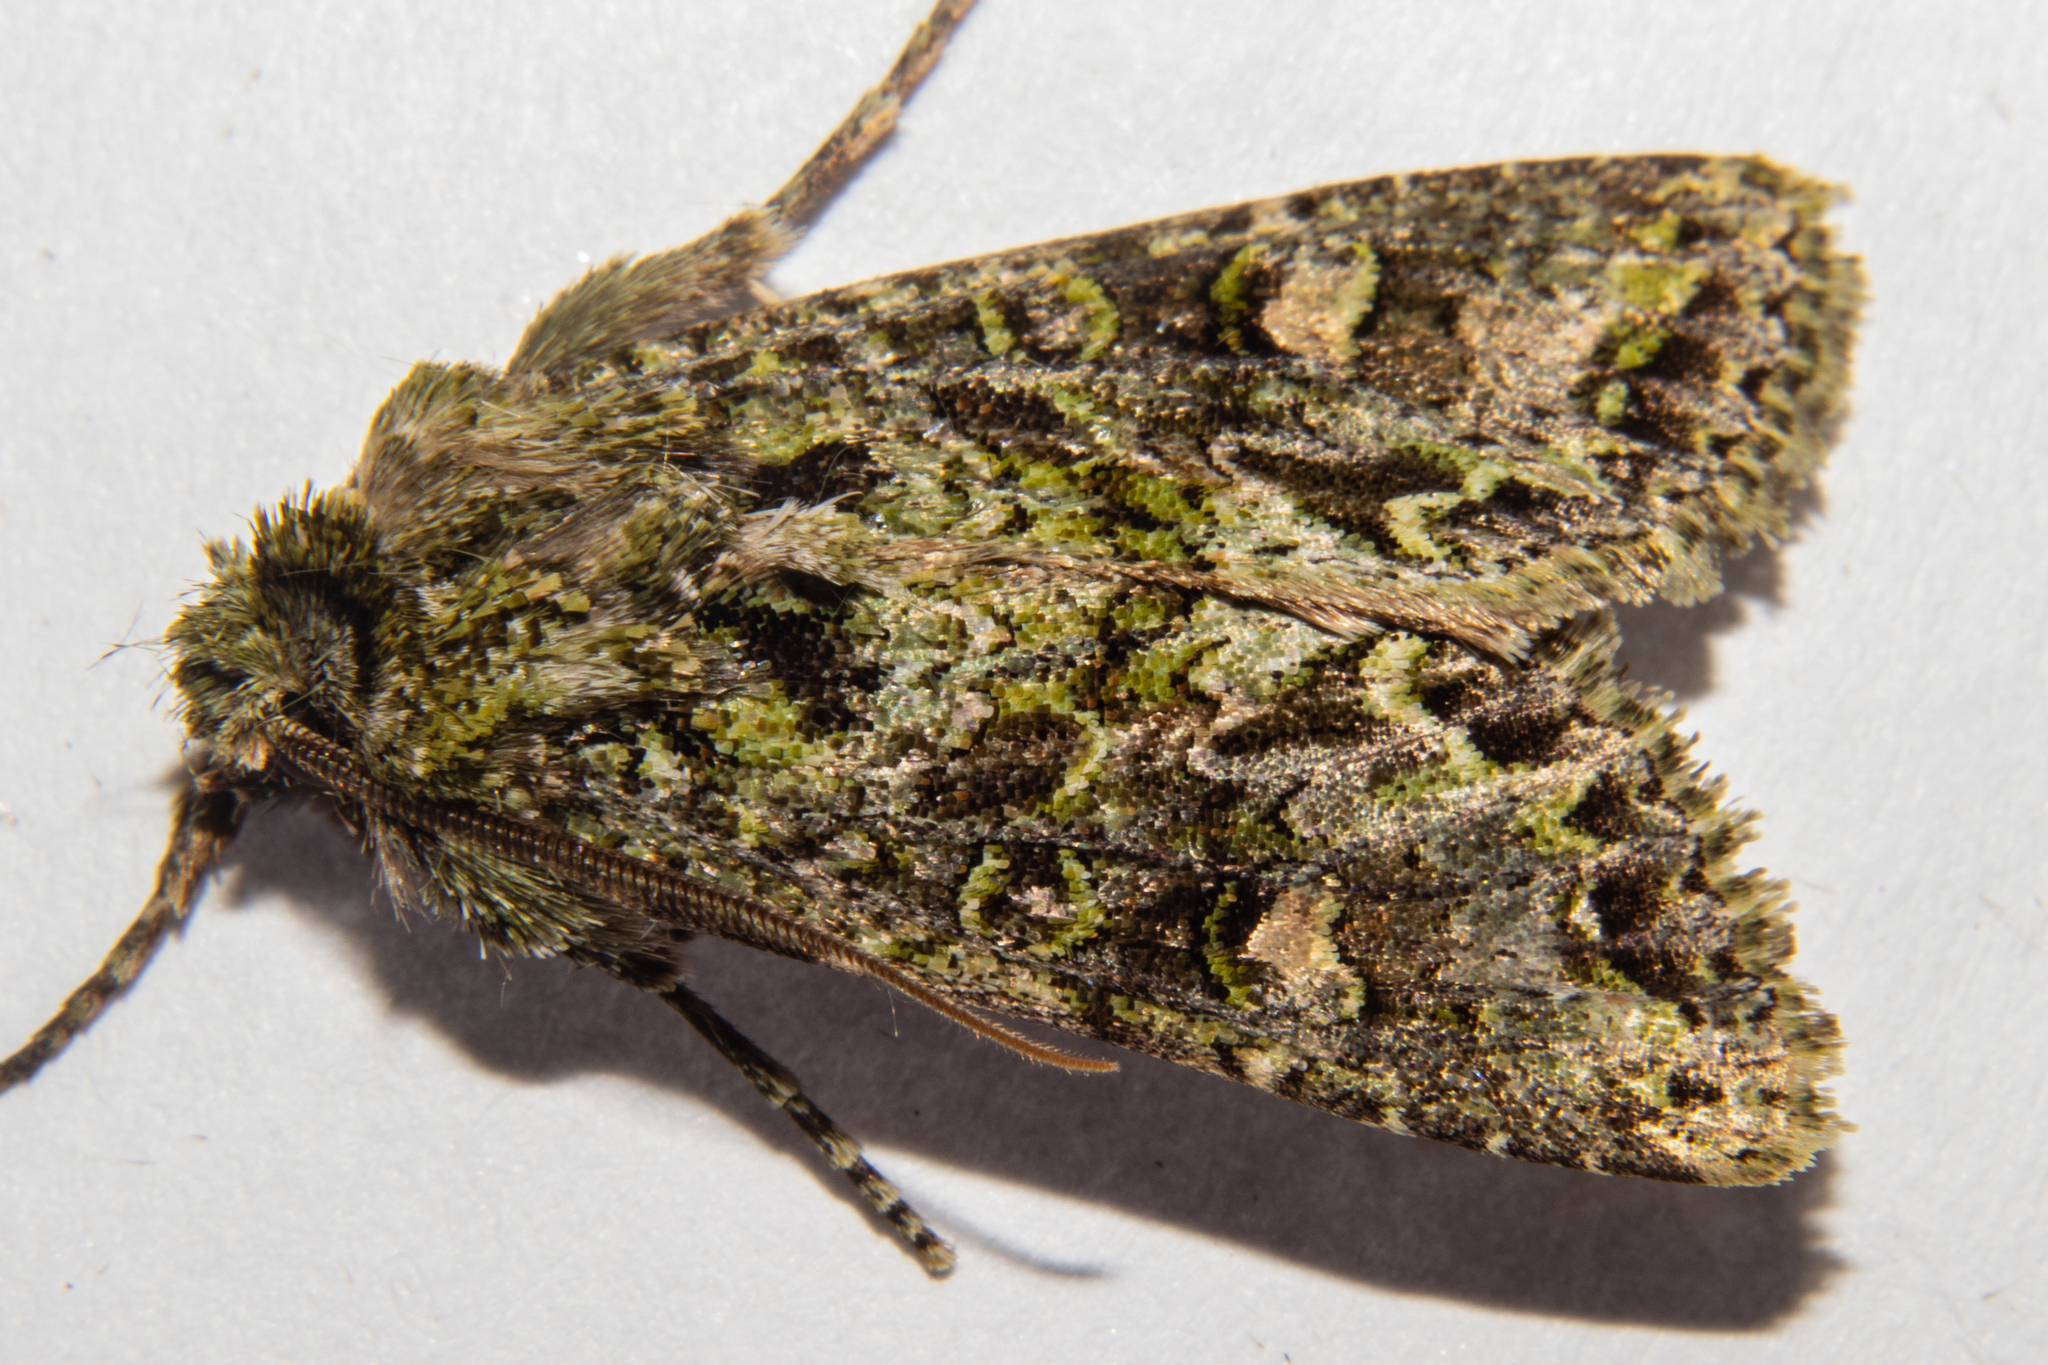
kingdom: Animalia
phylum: Arthropoda
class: Insecta
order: Lepidoptera
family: Noctuidae
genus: Ichneutica
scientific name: Ichneutica
